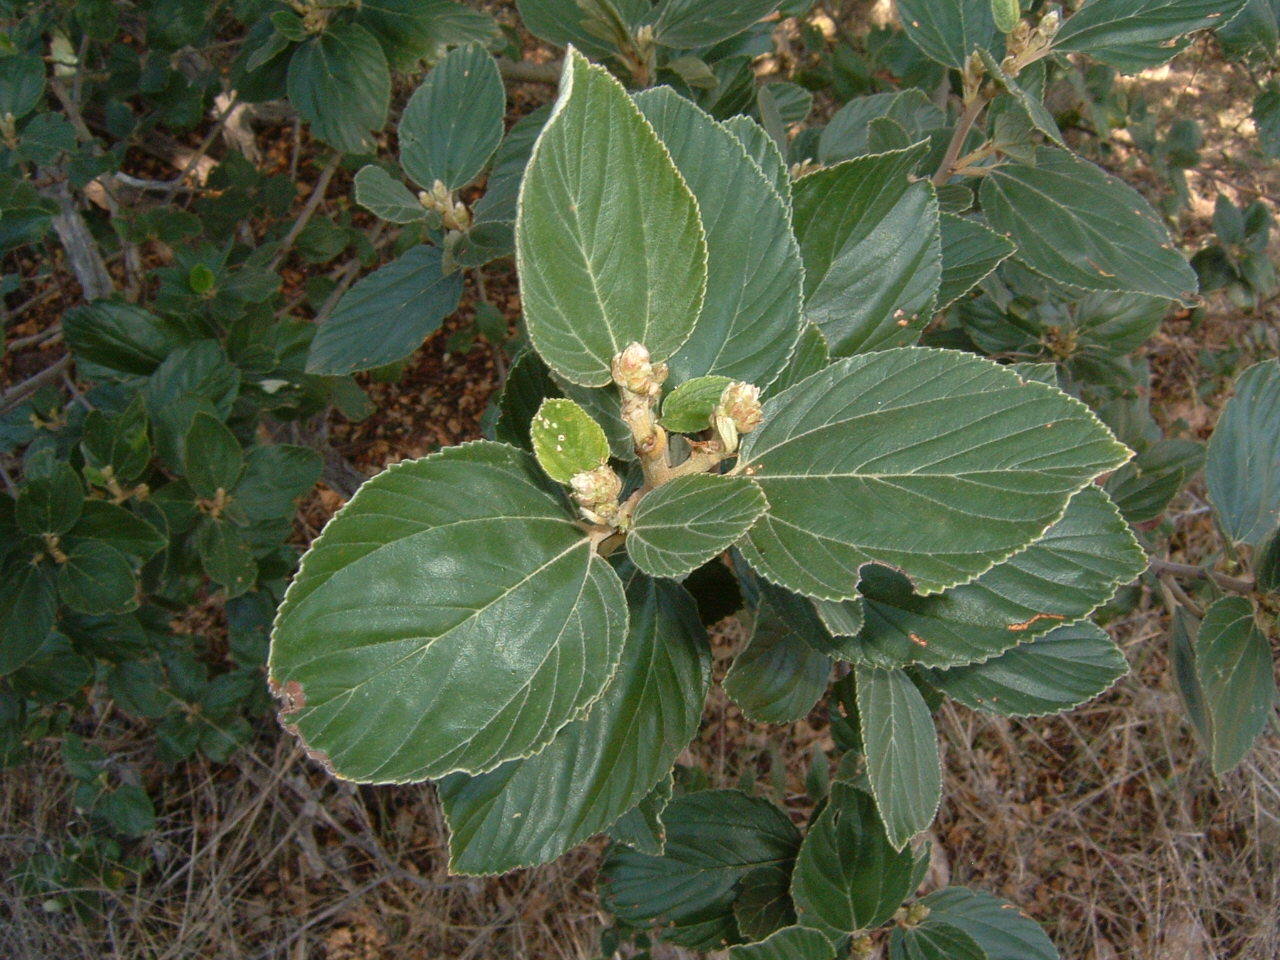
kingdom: Plantae
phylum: Tracheophyta
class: Magnoliopsida
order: Rosales
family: Rhamnaceae
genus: Ceanothus
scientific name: Ceanothus arboreus
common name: Catalina mountain-lilac
